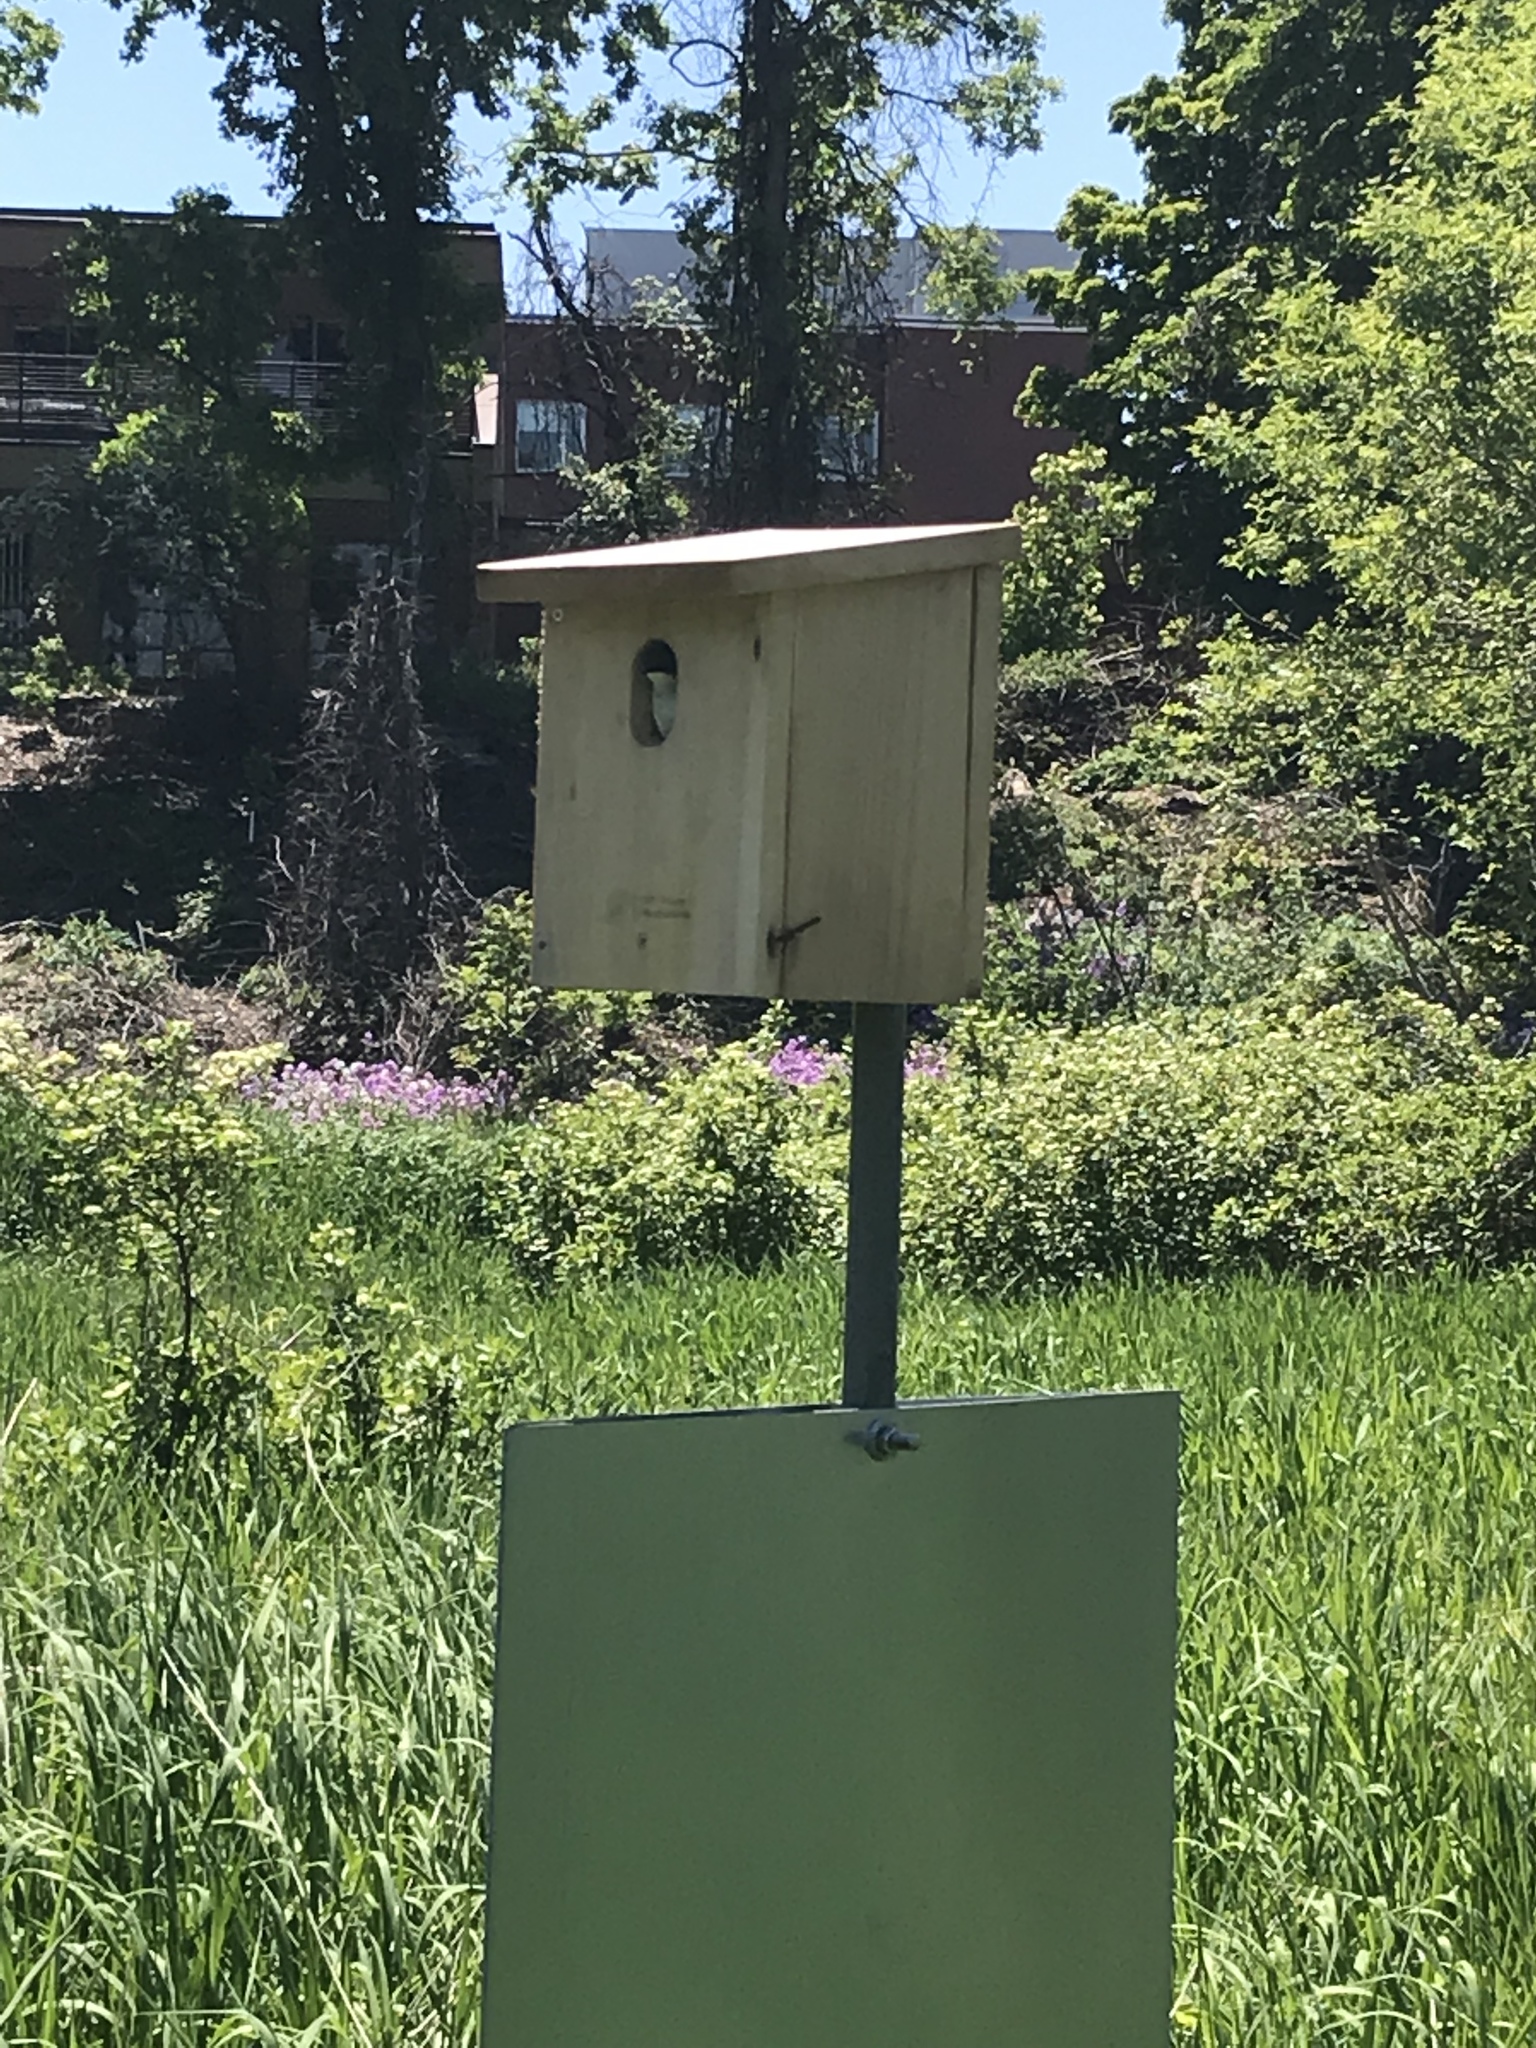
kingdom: Animalia
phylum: Chordata
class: Aves
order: Passeriformes
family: Hirundinidae
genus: Tachycineta
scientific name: Tachycineta bicolor
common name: Tree swallow
